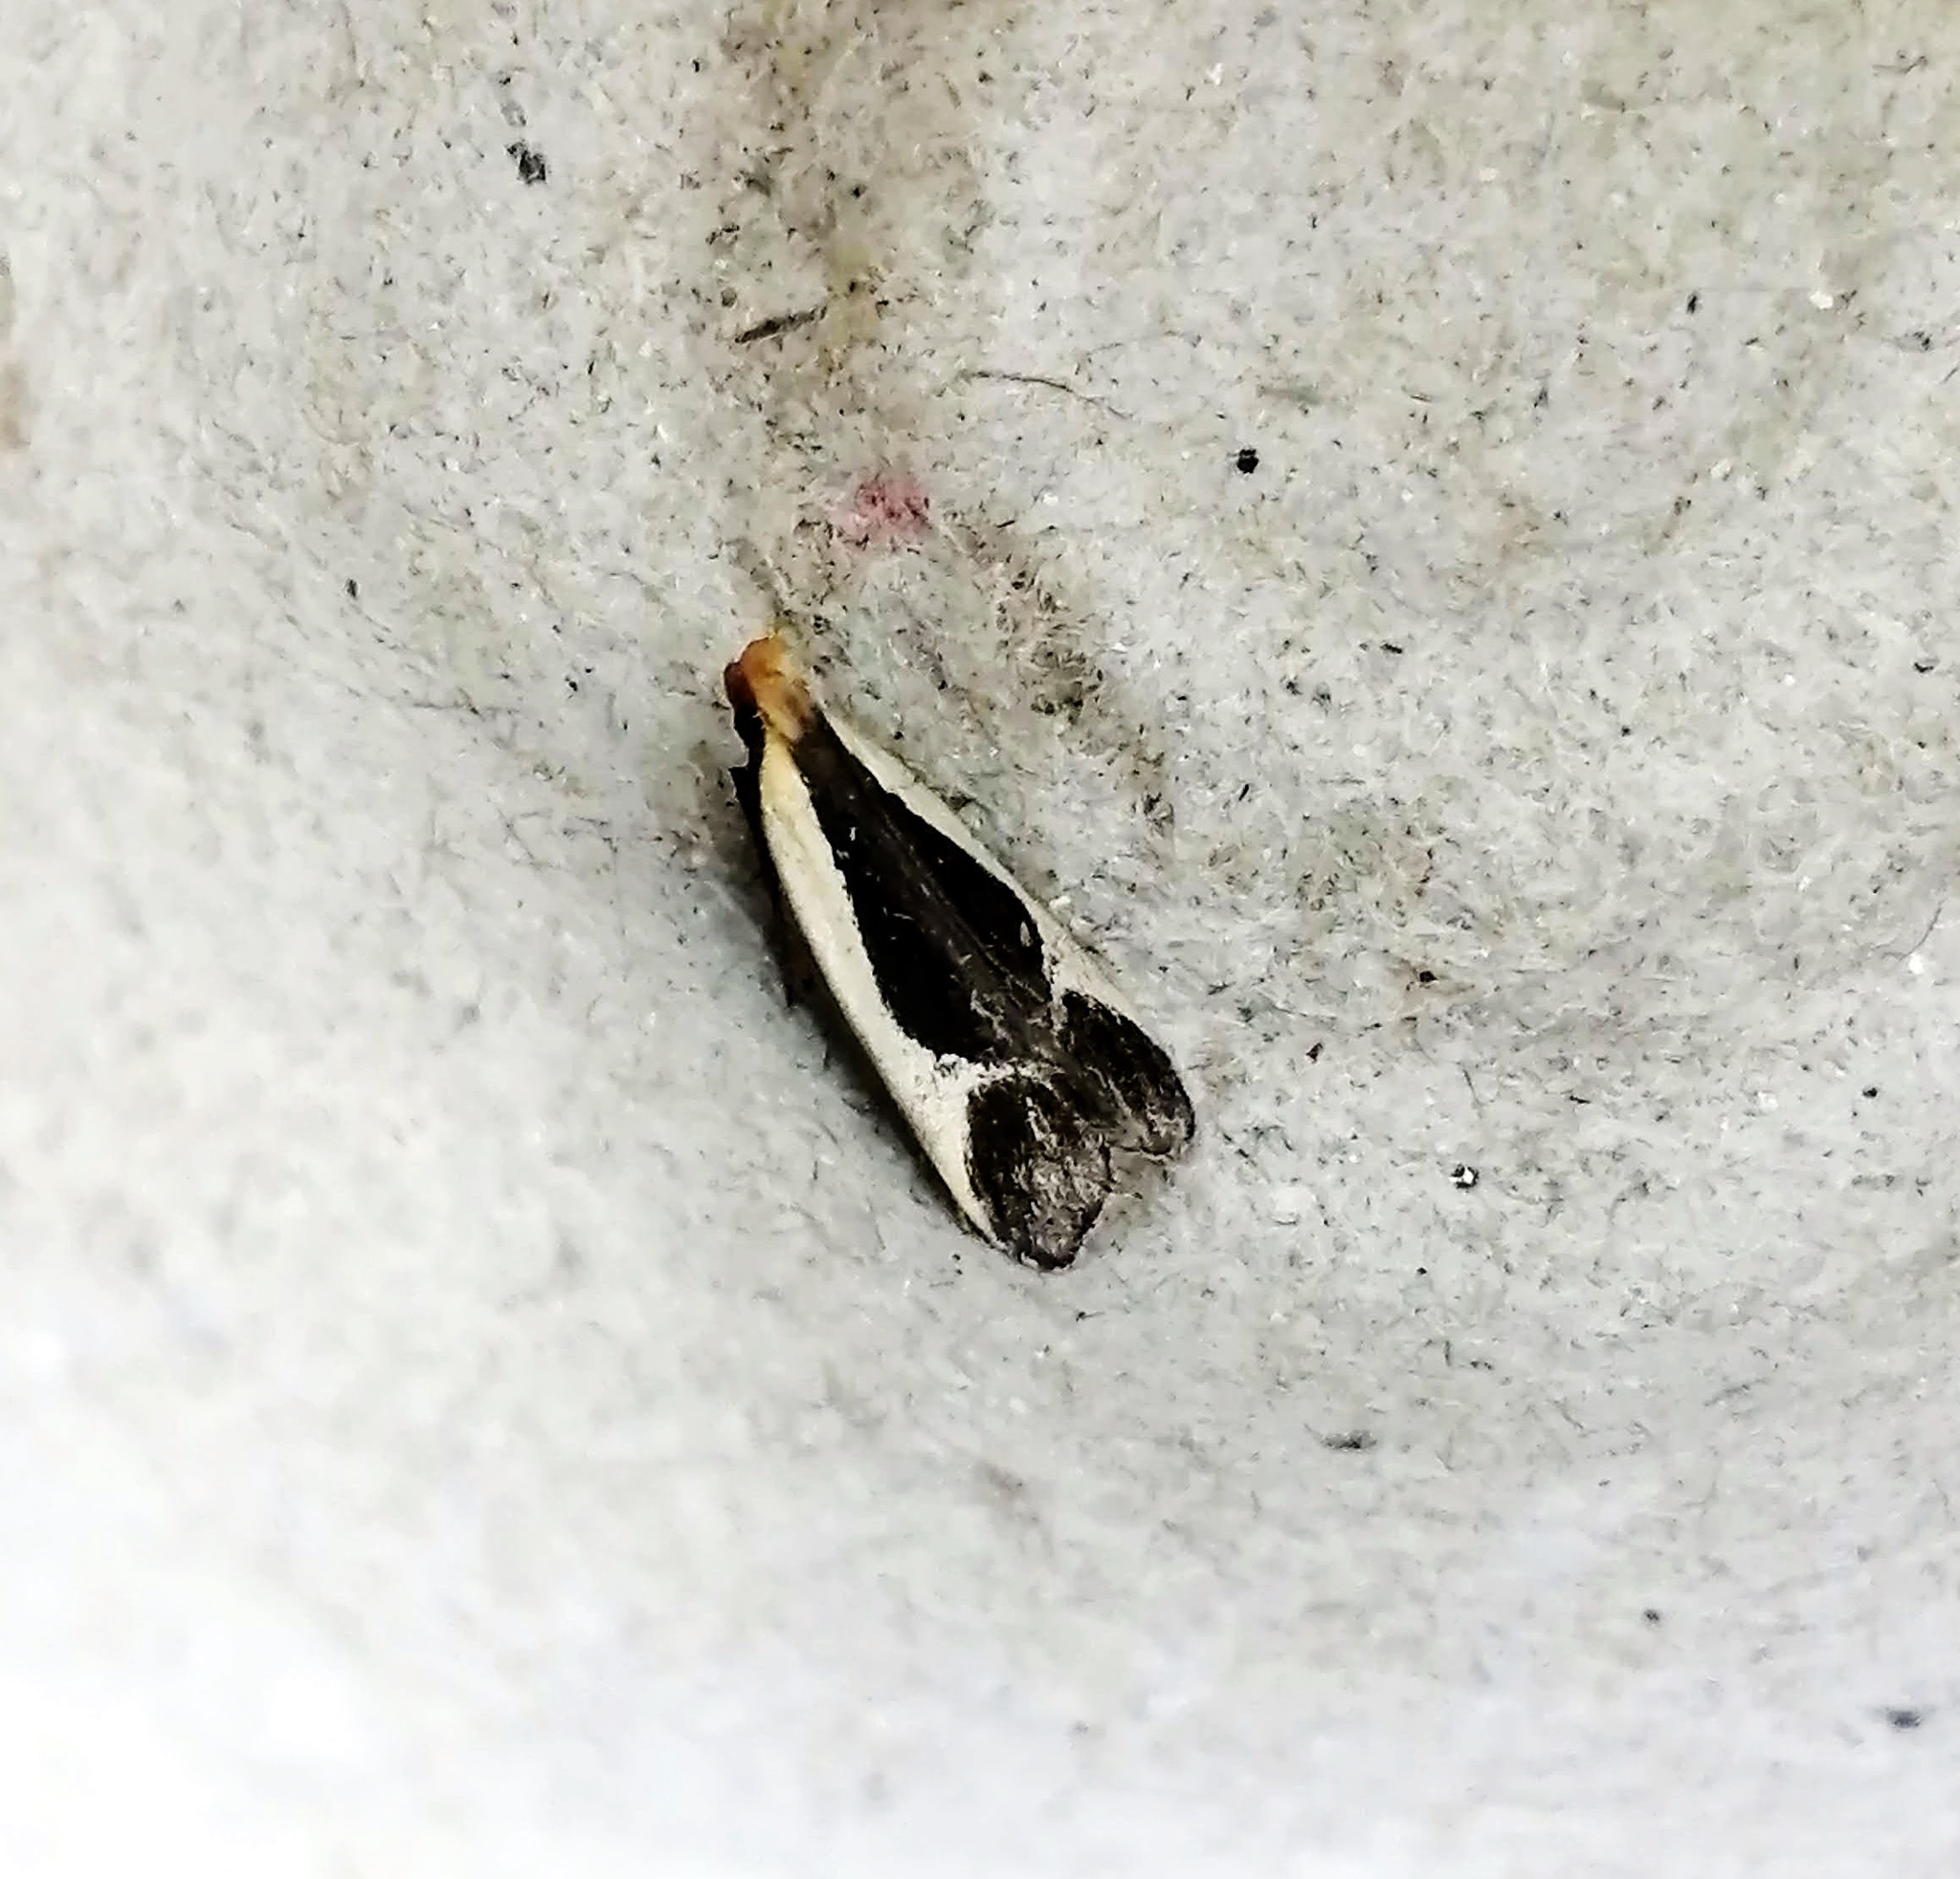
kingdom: Animalia
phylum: Arthropoda
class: Insecta
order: Lepidoptera
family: Gelechiidae
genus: Dichomeris
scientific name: Dichomeris flavocostella
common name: Cream-edged dichomeris moth
